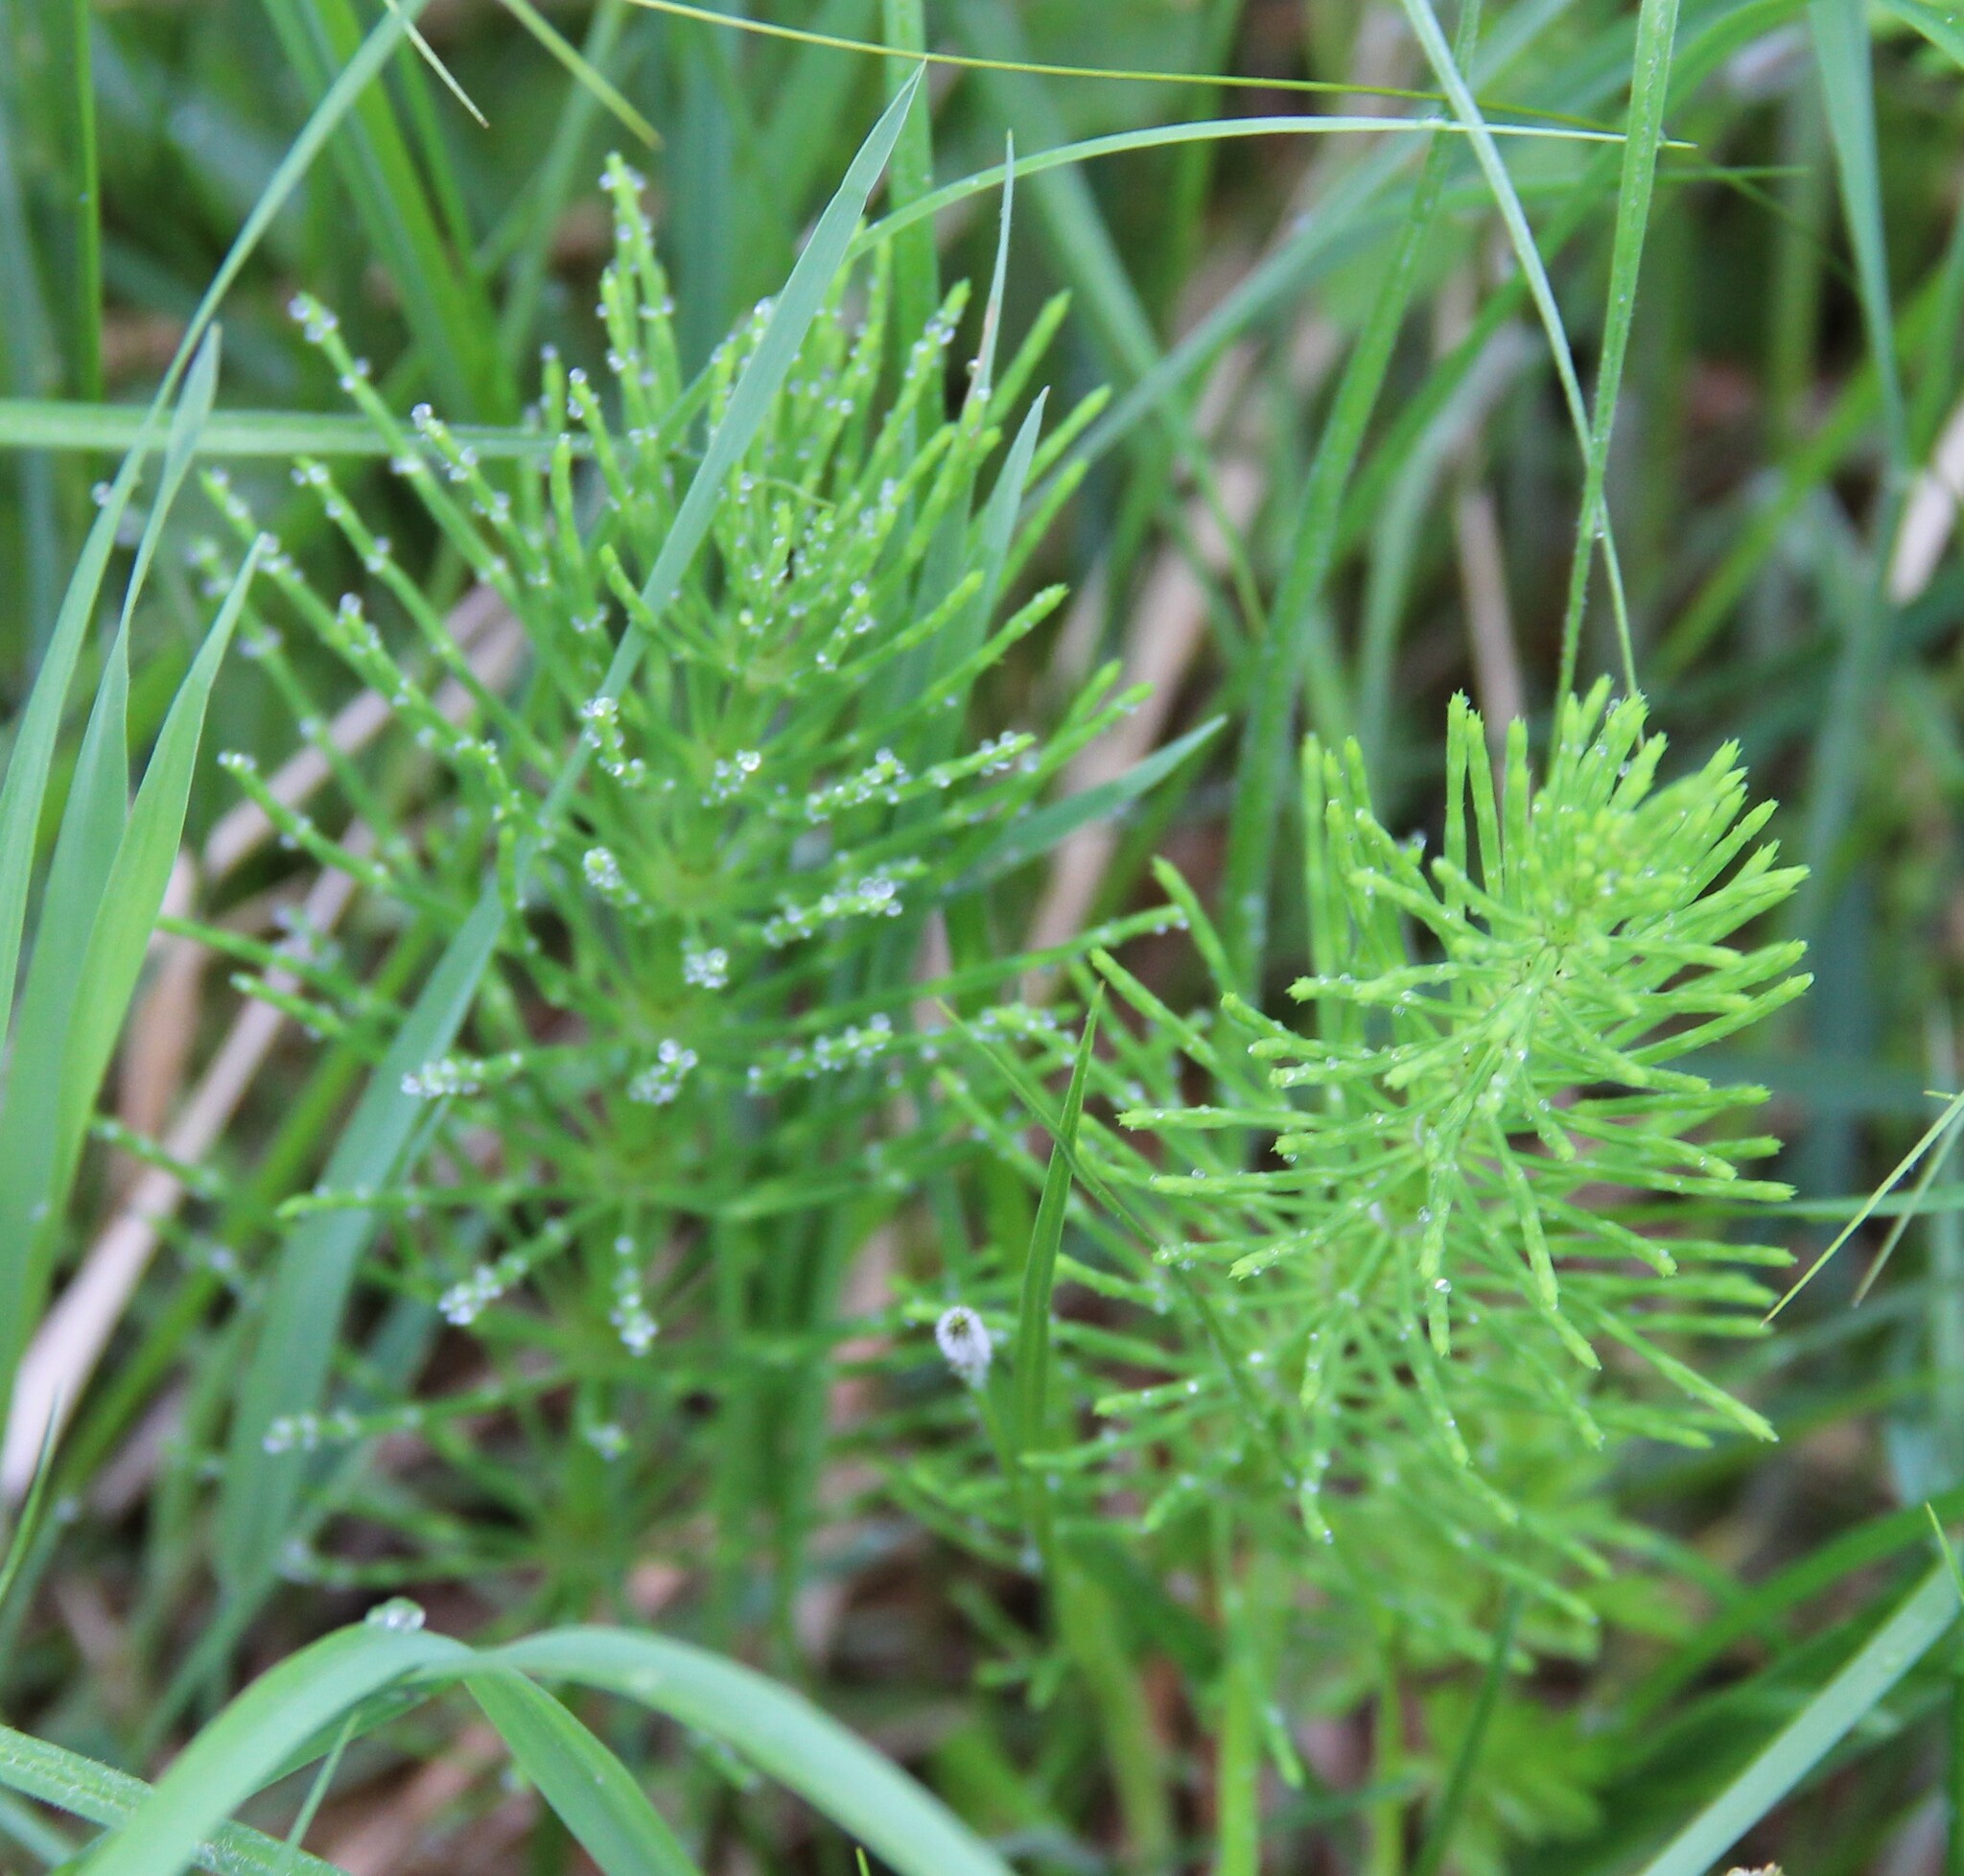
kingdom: Plantae
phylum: Tracheophyta
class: Polypodiopsida
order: Equisetales
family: Equisetaceae
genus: Equisetum
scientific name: Equisetum arvense
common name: Field horsetail
